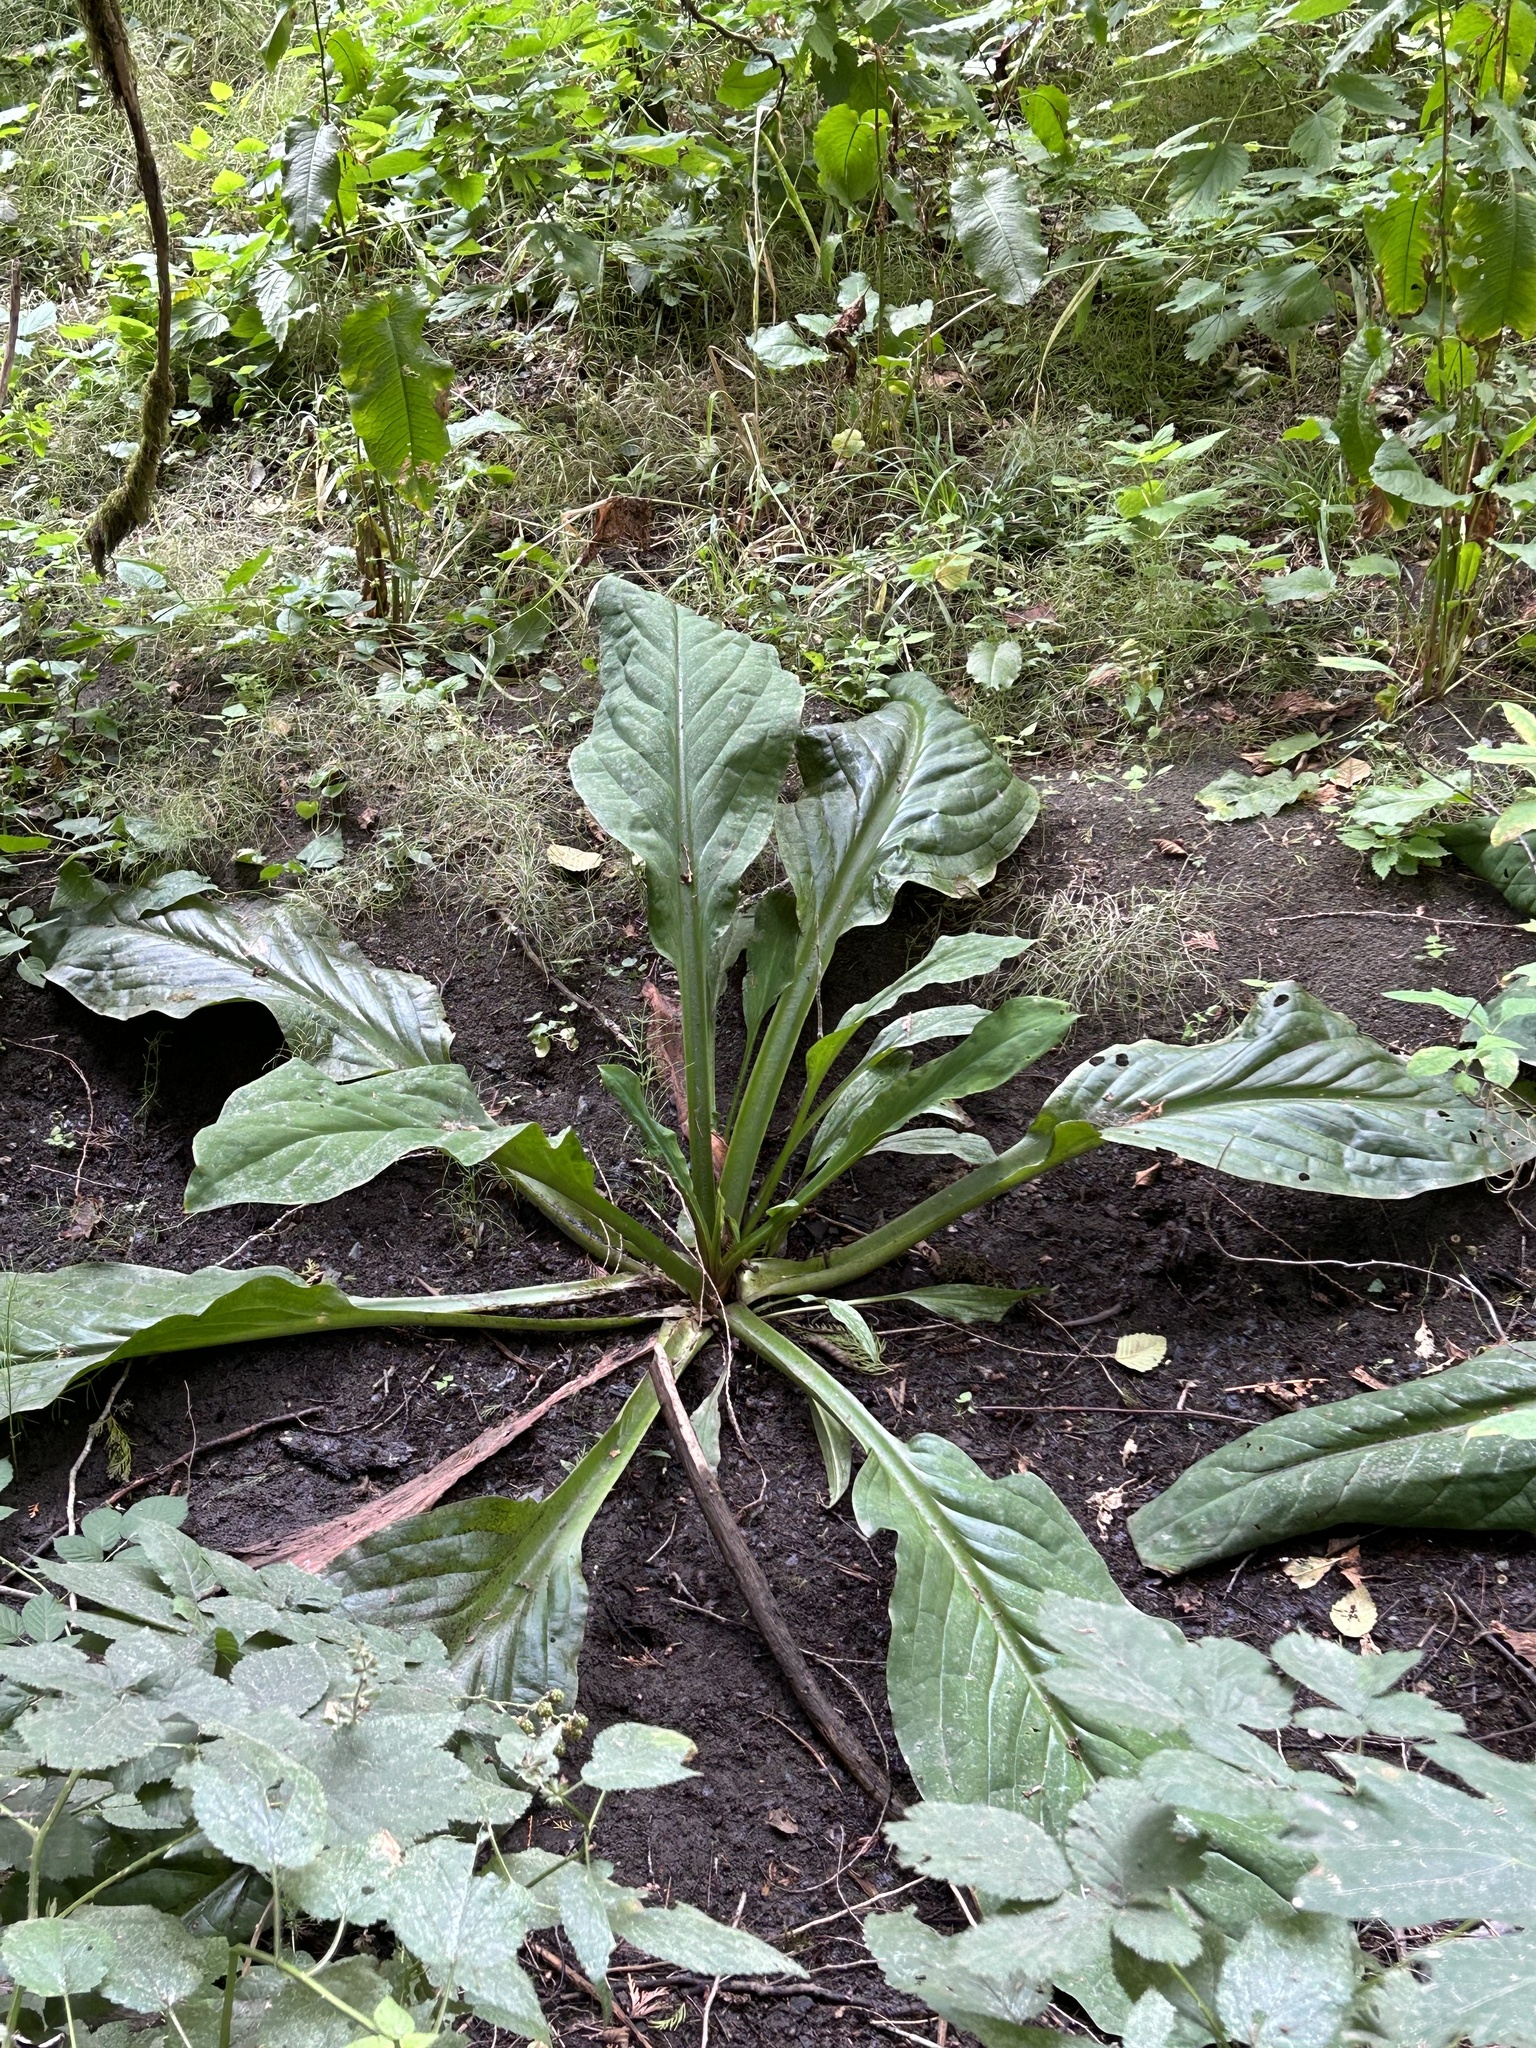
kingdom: Plantae
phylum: Tracheophyta
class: Liliopsida
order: Alismatales
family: Araceae
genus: Lysichiton
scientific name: Lysichiton americanus
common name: American skunk cabbage
